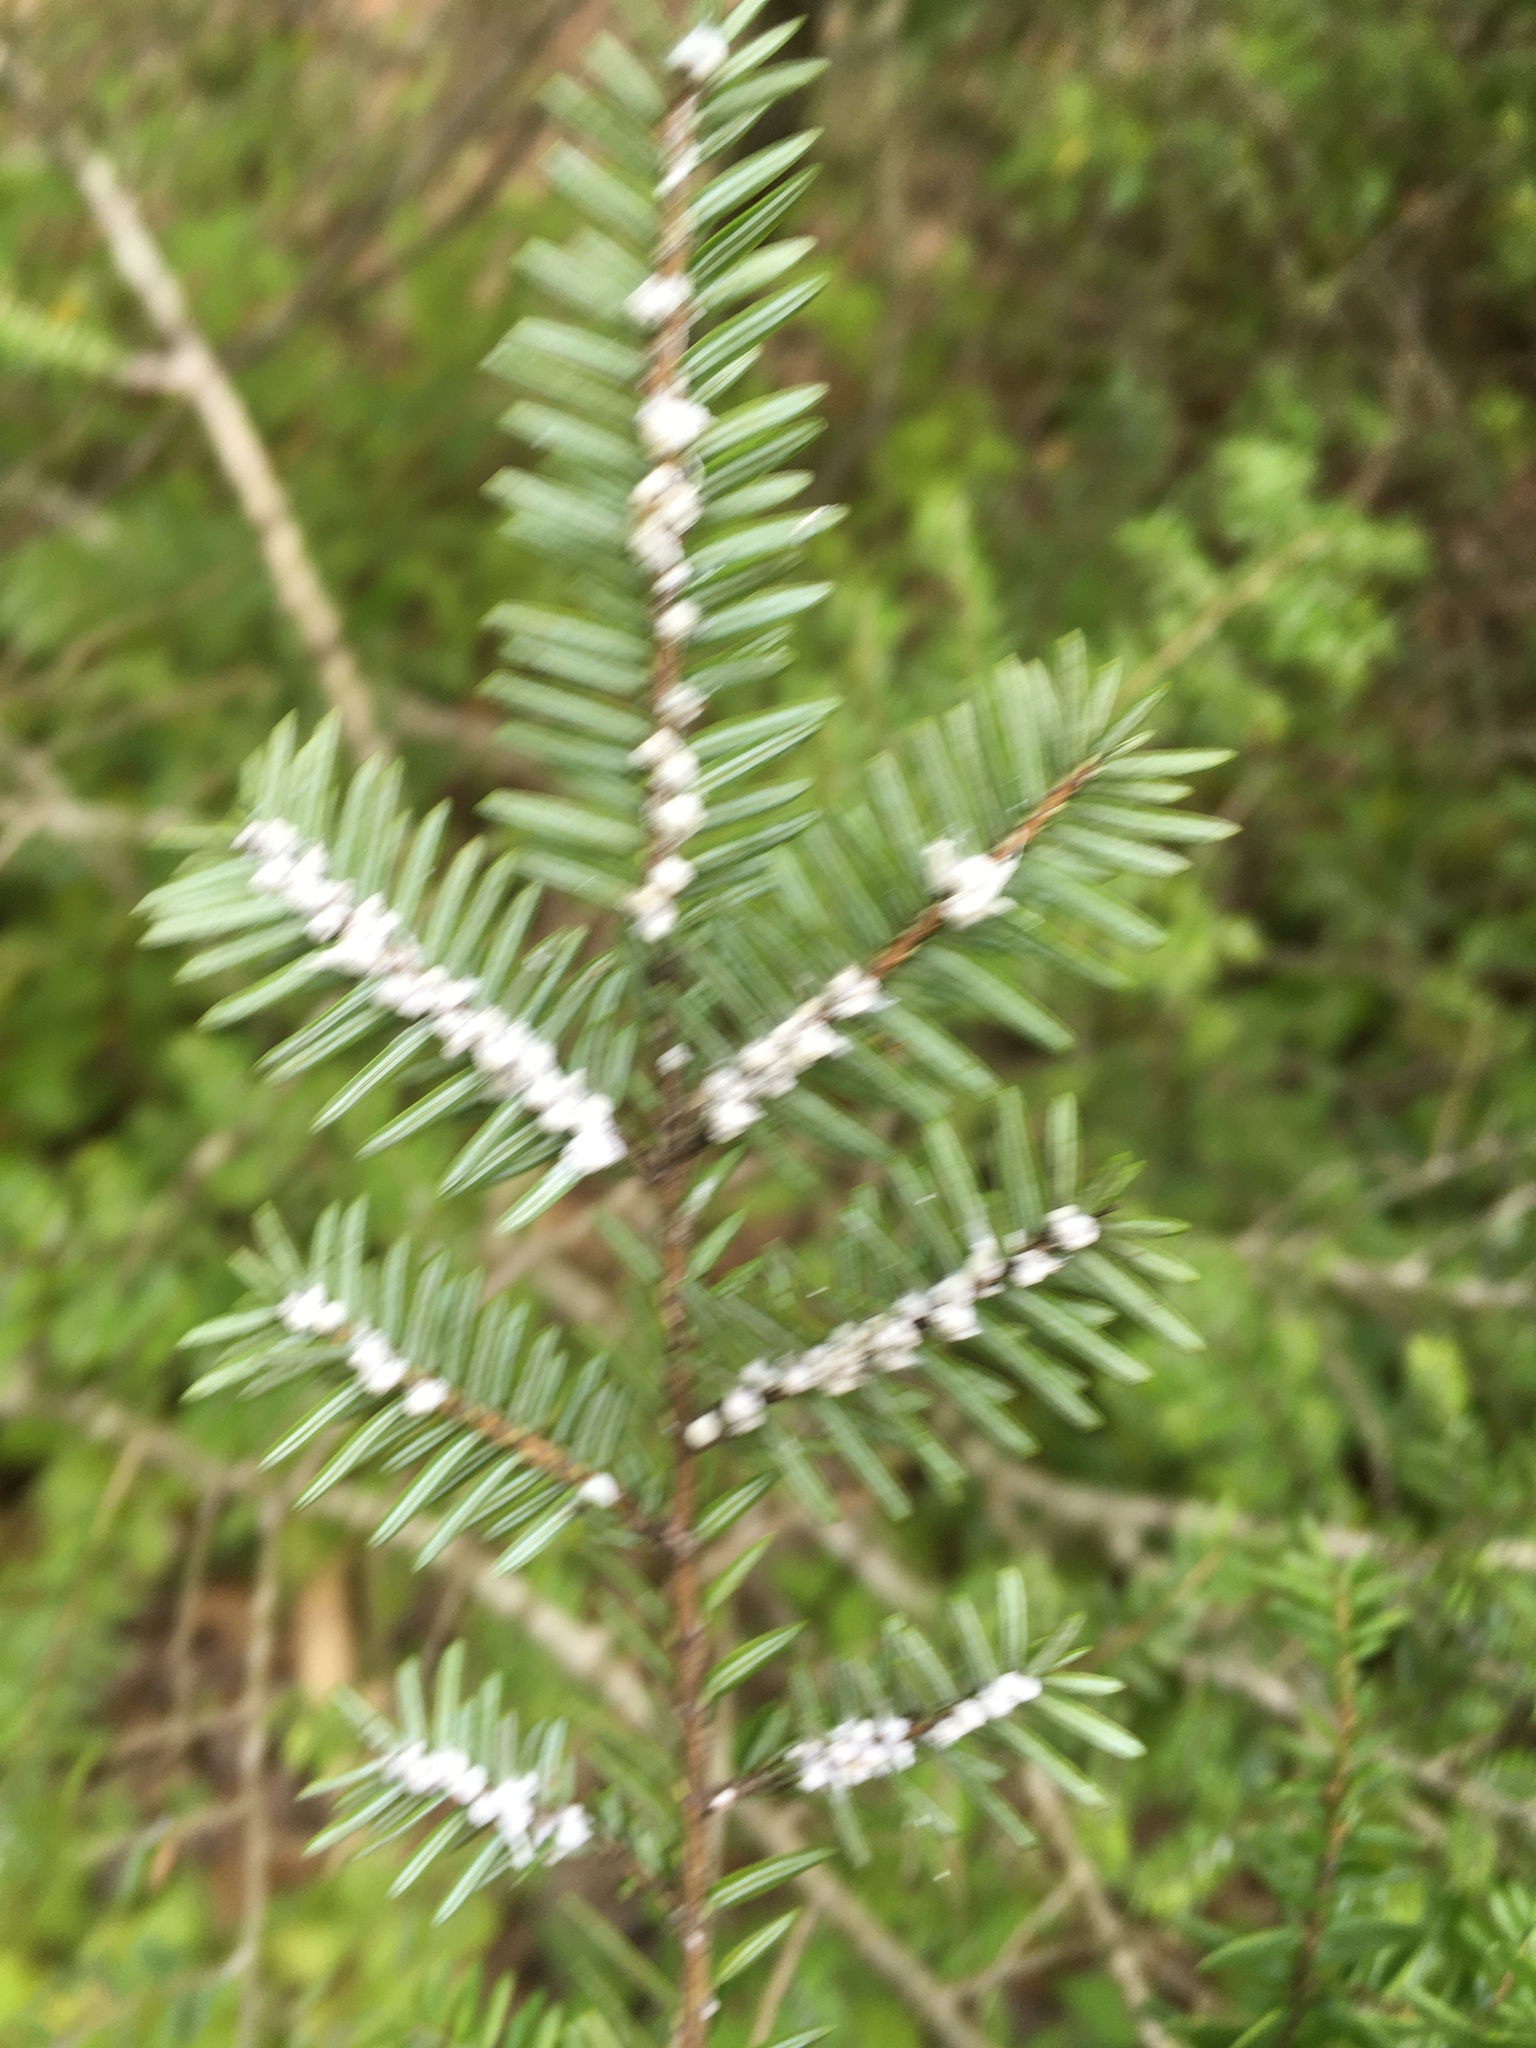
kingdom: Plantae
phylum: Tracheophyta
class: Pinopsida
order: Pinales
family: Pinaceae
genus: Tsuga
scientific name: Tsuga canadensis
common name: Eastern hemlock
